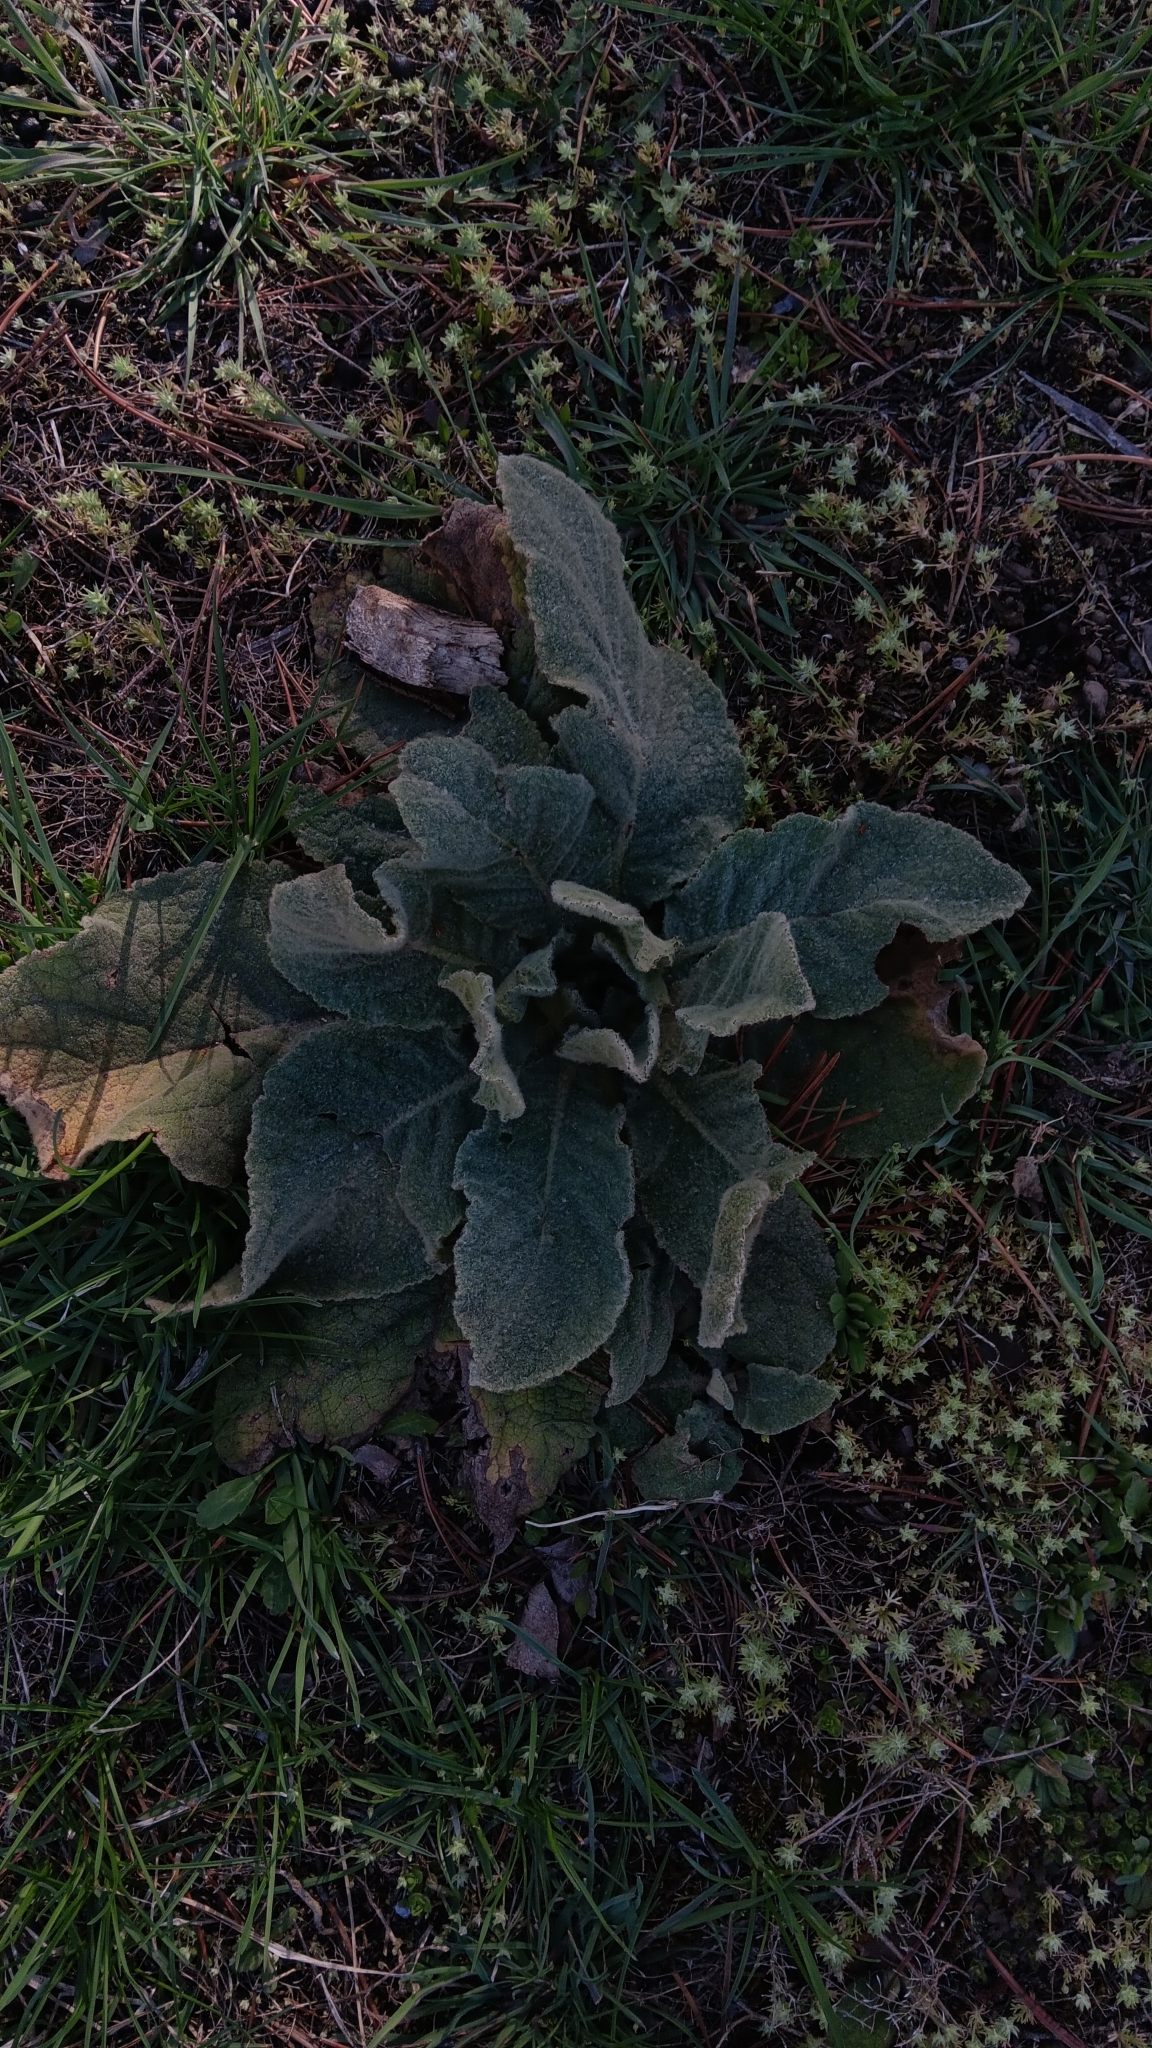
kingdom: Plantae
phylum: Tracheophyta
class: Magnoliopsida
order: Lamiales
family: Scrophulariaceae
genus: Verbascum
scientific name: Verbascum thapsus
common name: Common mullein
